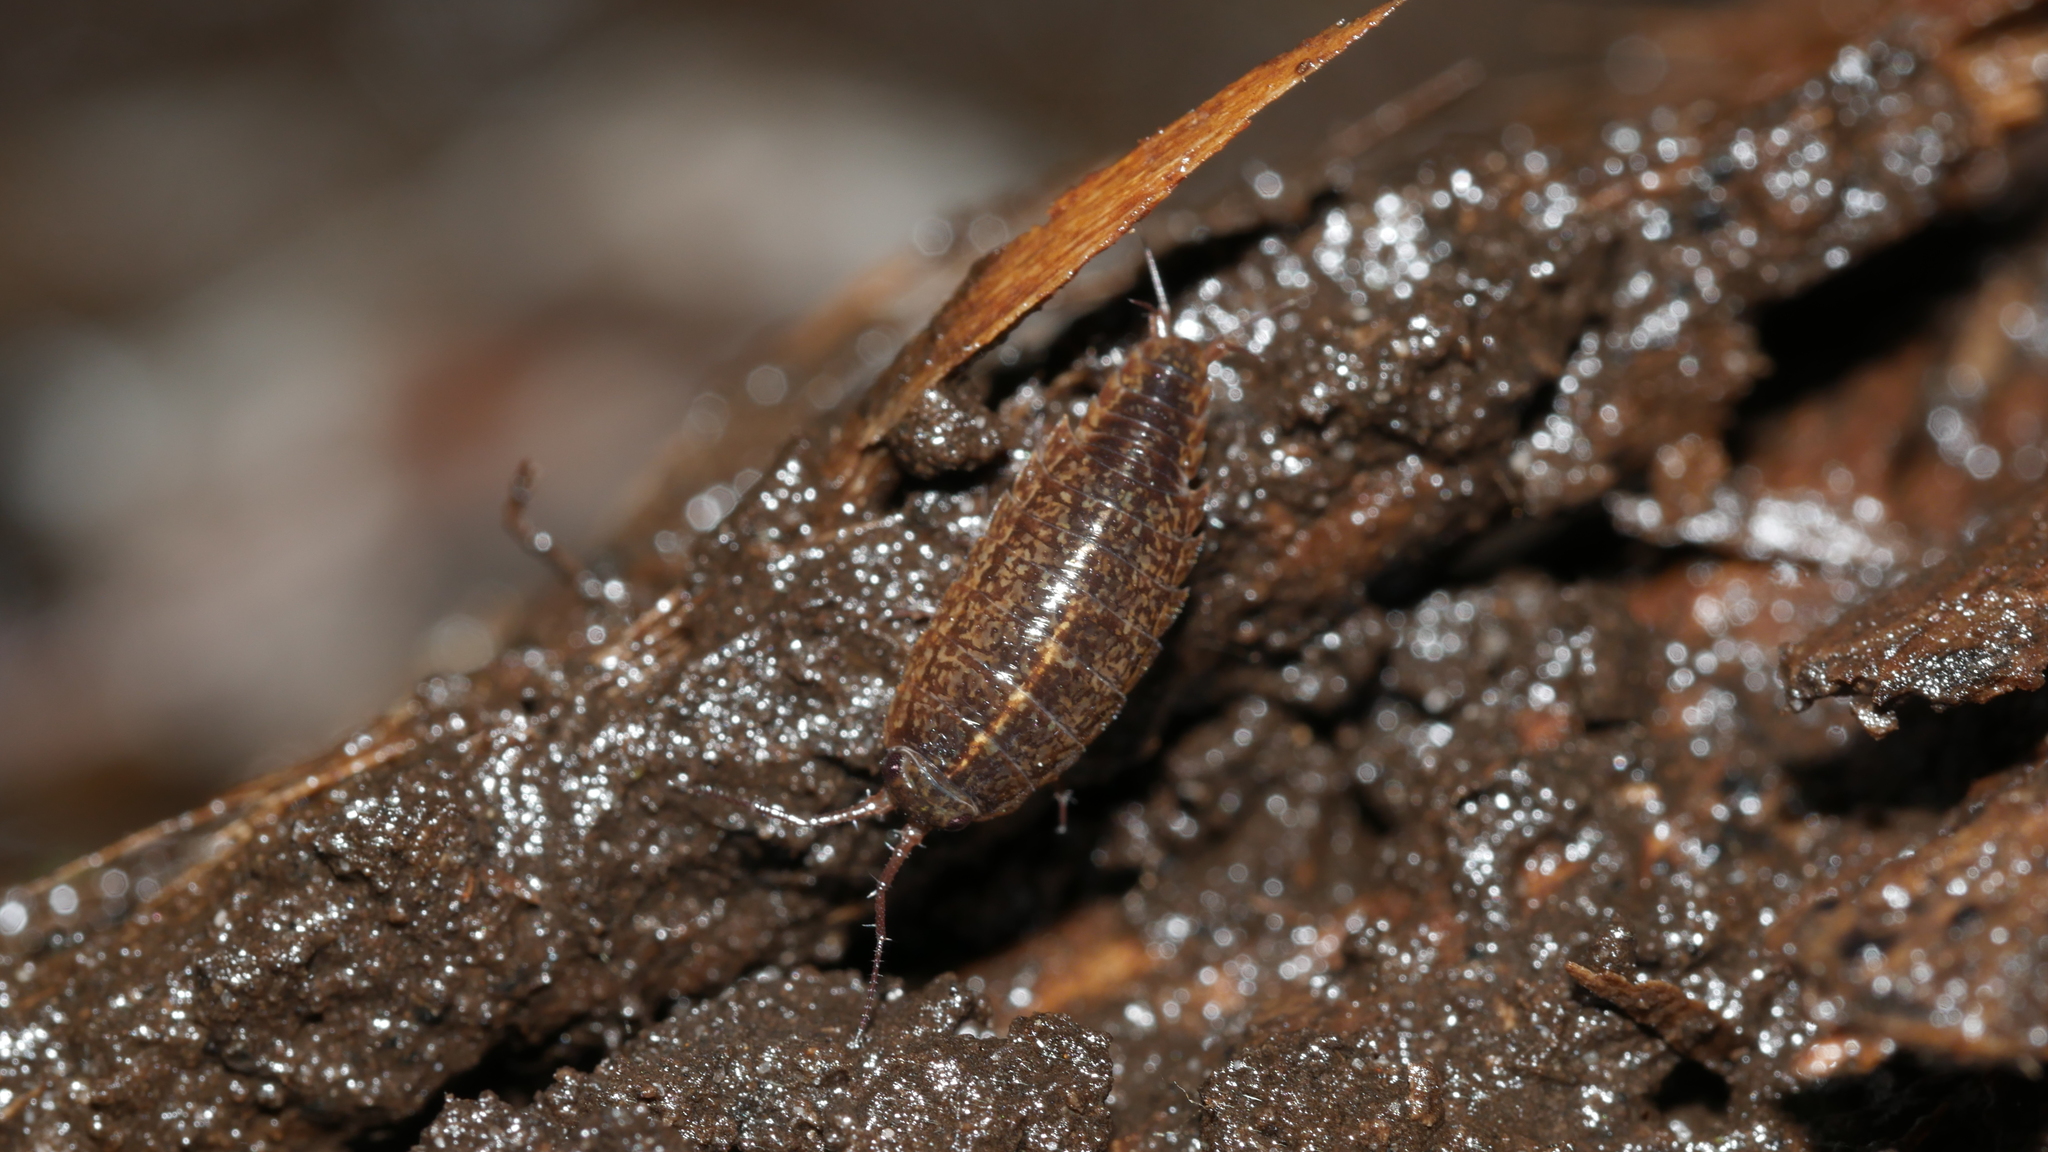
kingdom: Animalia
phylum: Arthropoda
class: Malacostraca
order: Isopoda
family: Ligiidae
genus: Ligidium
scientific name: Ligidium elrodii
